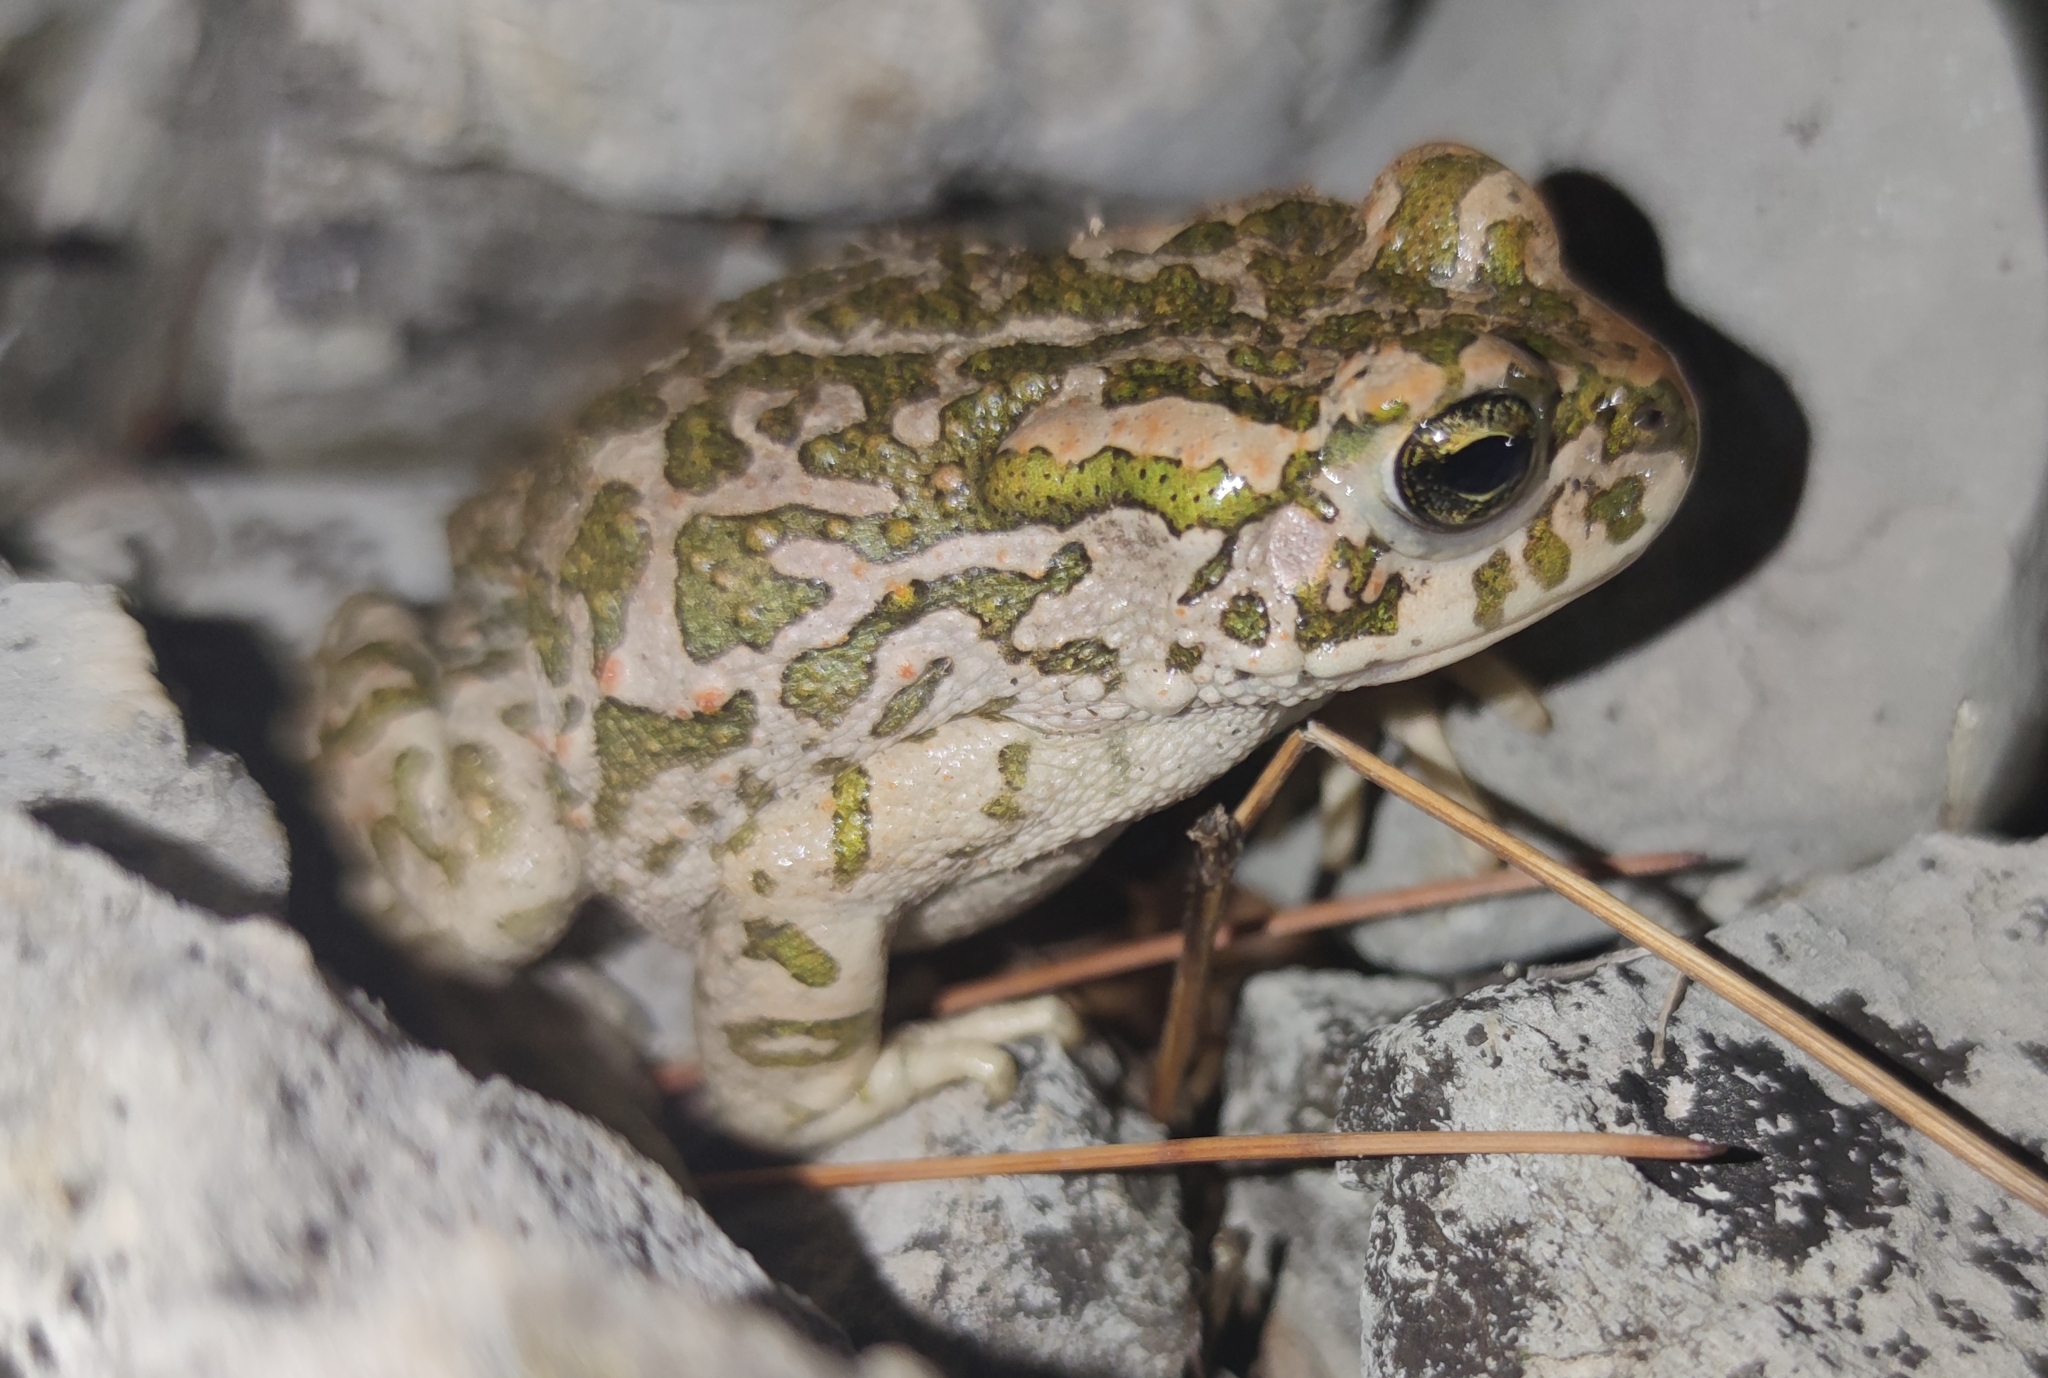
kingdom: Animalia
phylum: Chordata
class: Amphibia
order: Anura
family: Bufonidae
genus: Bufotes
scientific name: Bufotes viridis
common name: European green toad
